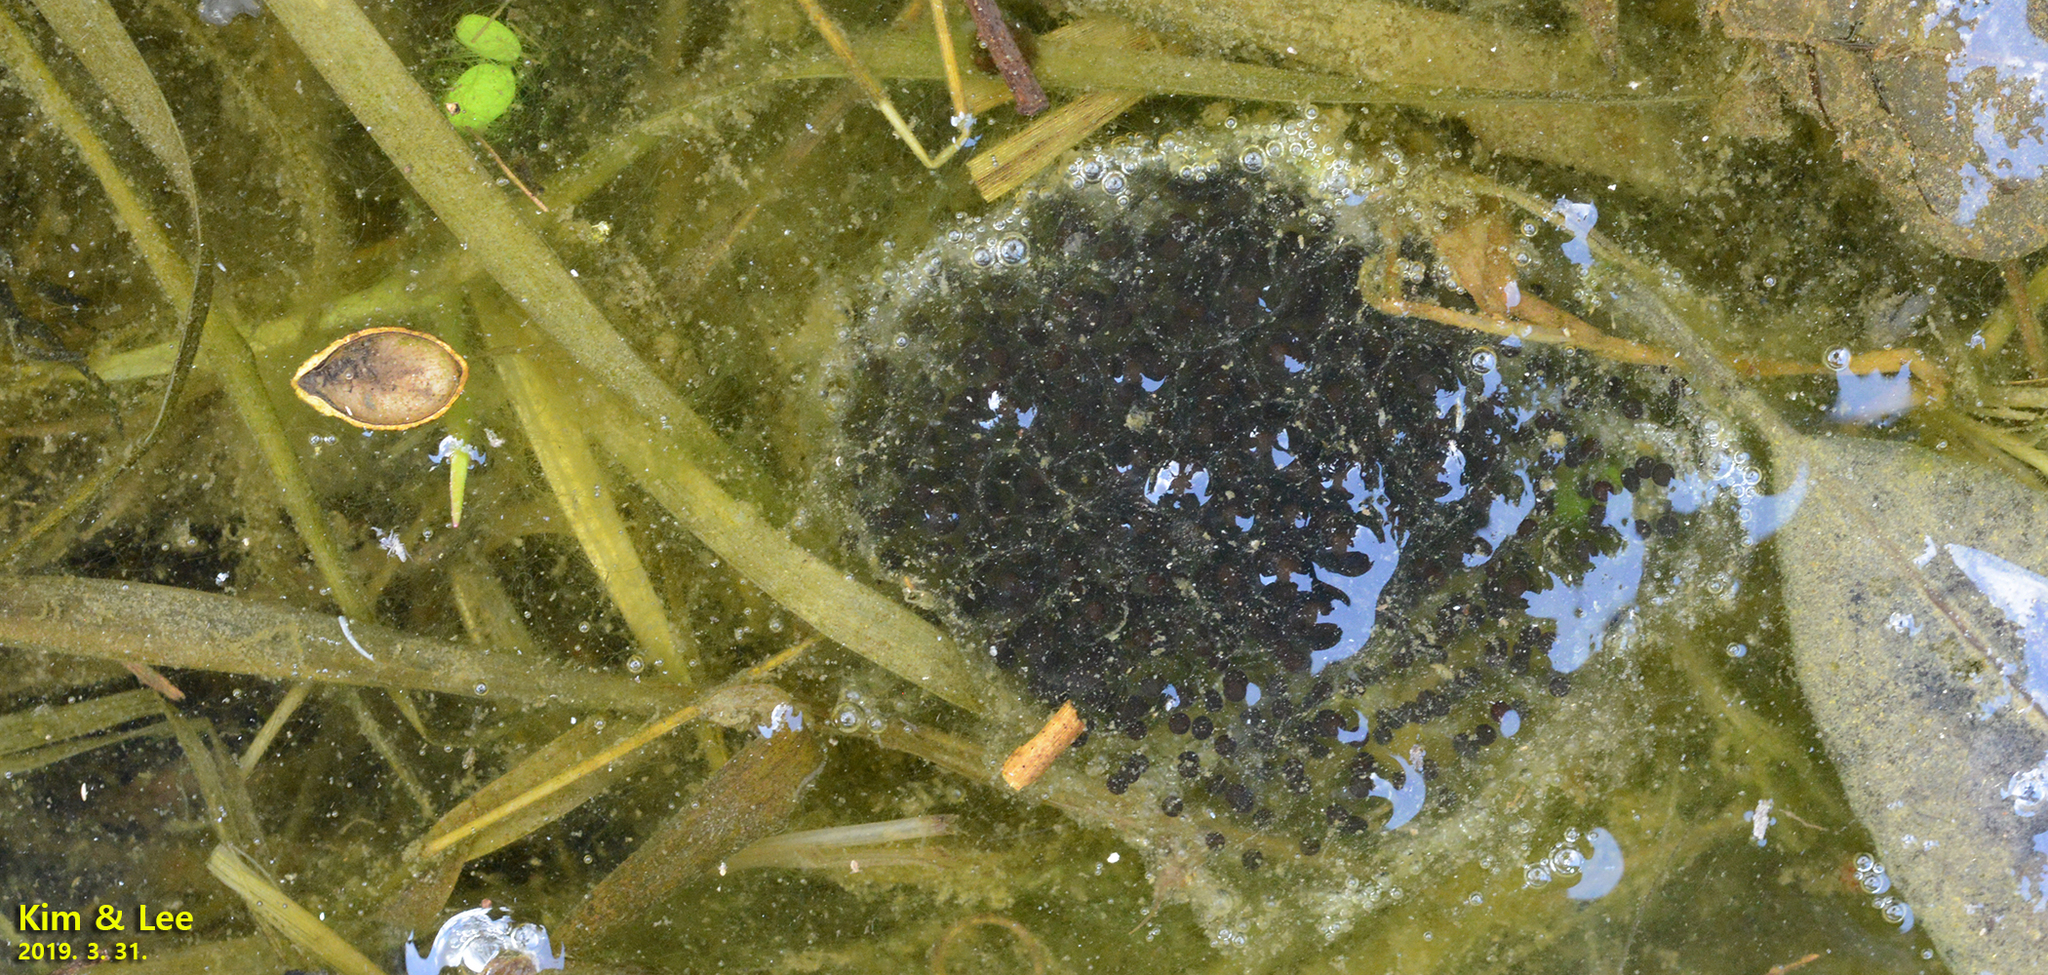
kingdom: Animalia
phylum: Chordata
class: Amphibia
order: Anura
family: Ranidae
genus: Rana
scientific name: Rana coreana
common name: Korean brown frog
